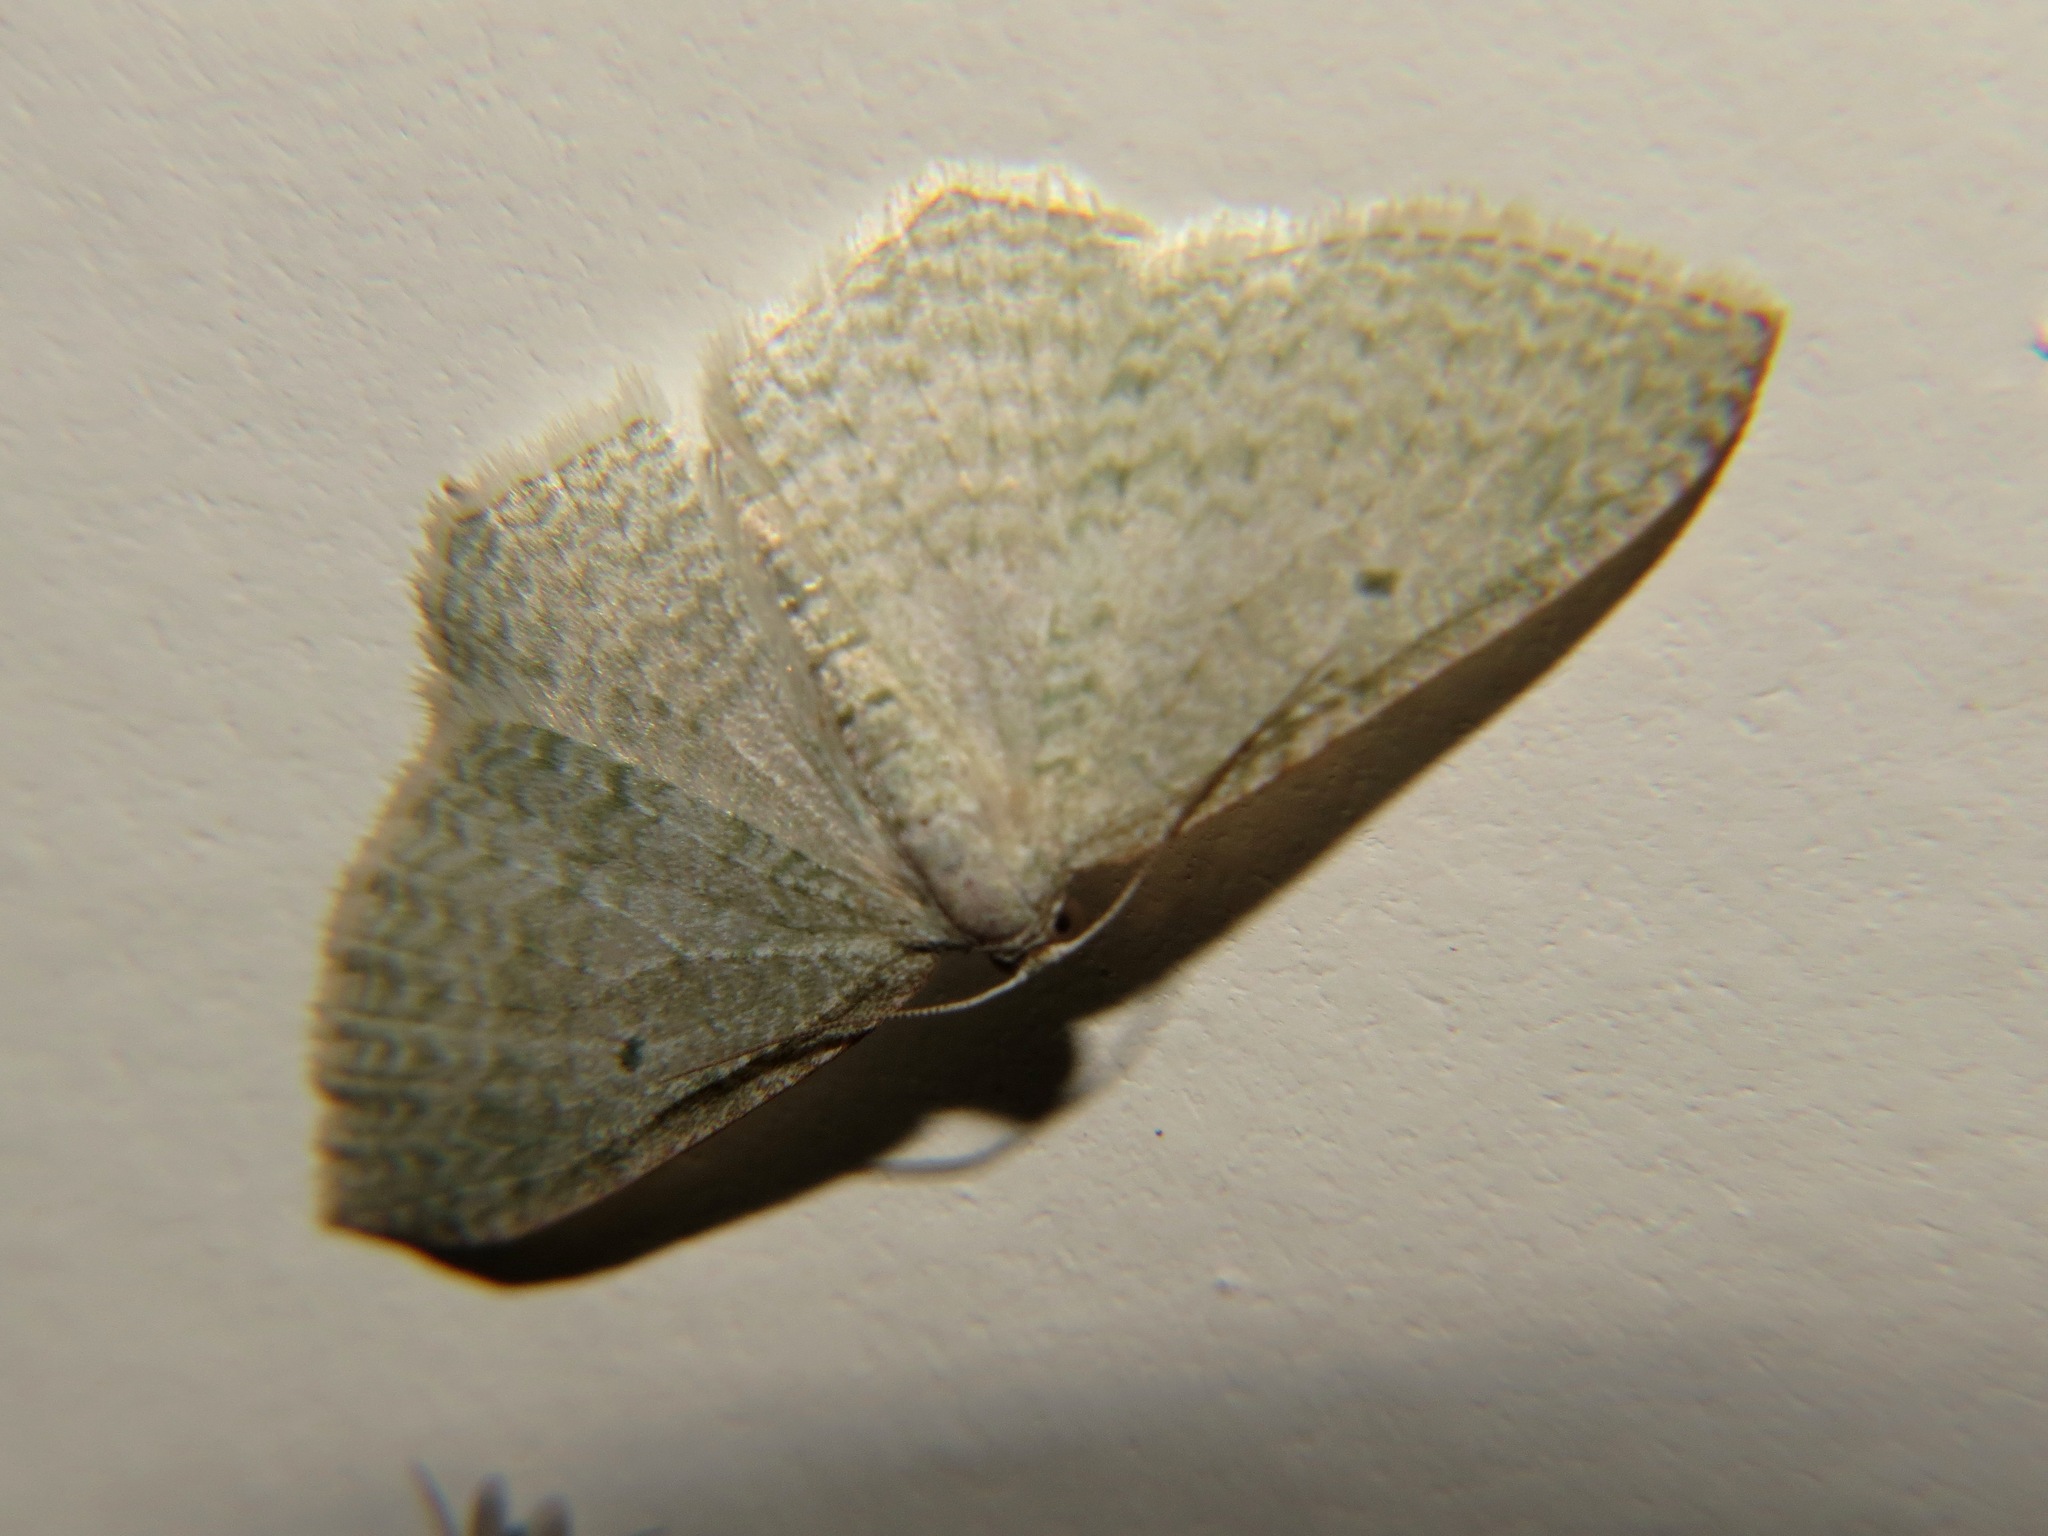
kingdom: Animalia
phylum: Arthropoda
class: Insecta
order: Lepidoptera
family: Geometridae
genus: Poecilasthena
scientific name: Poecilasthena pulchraria
